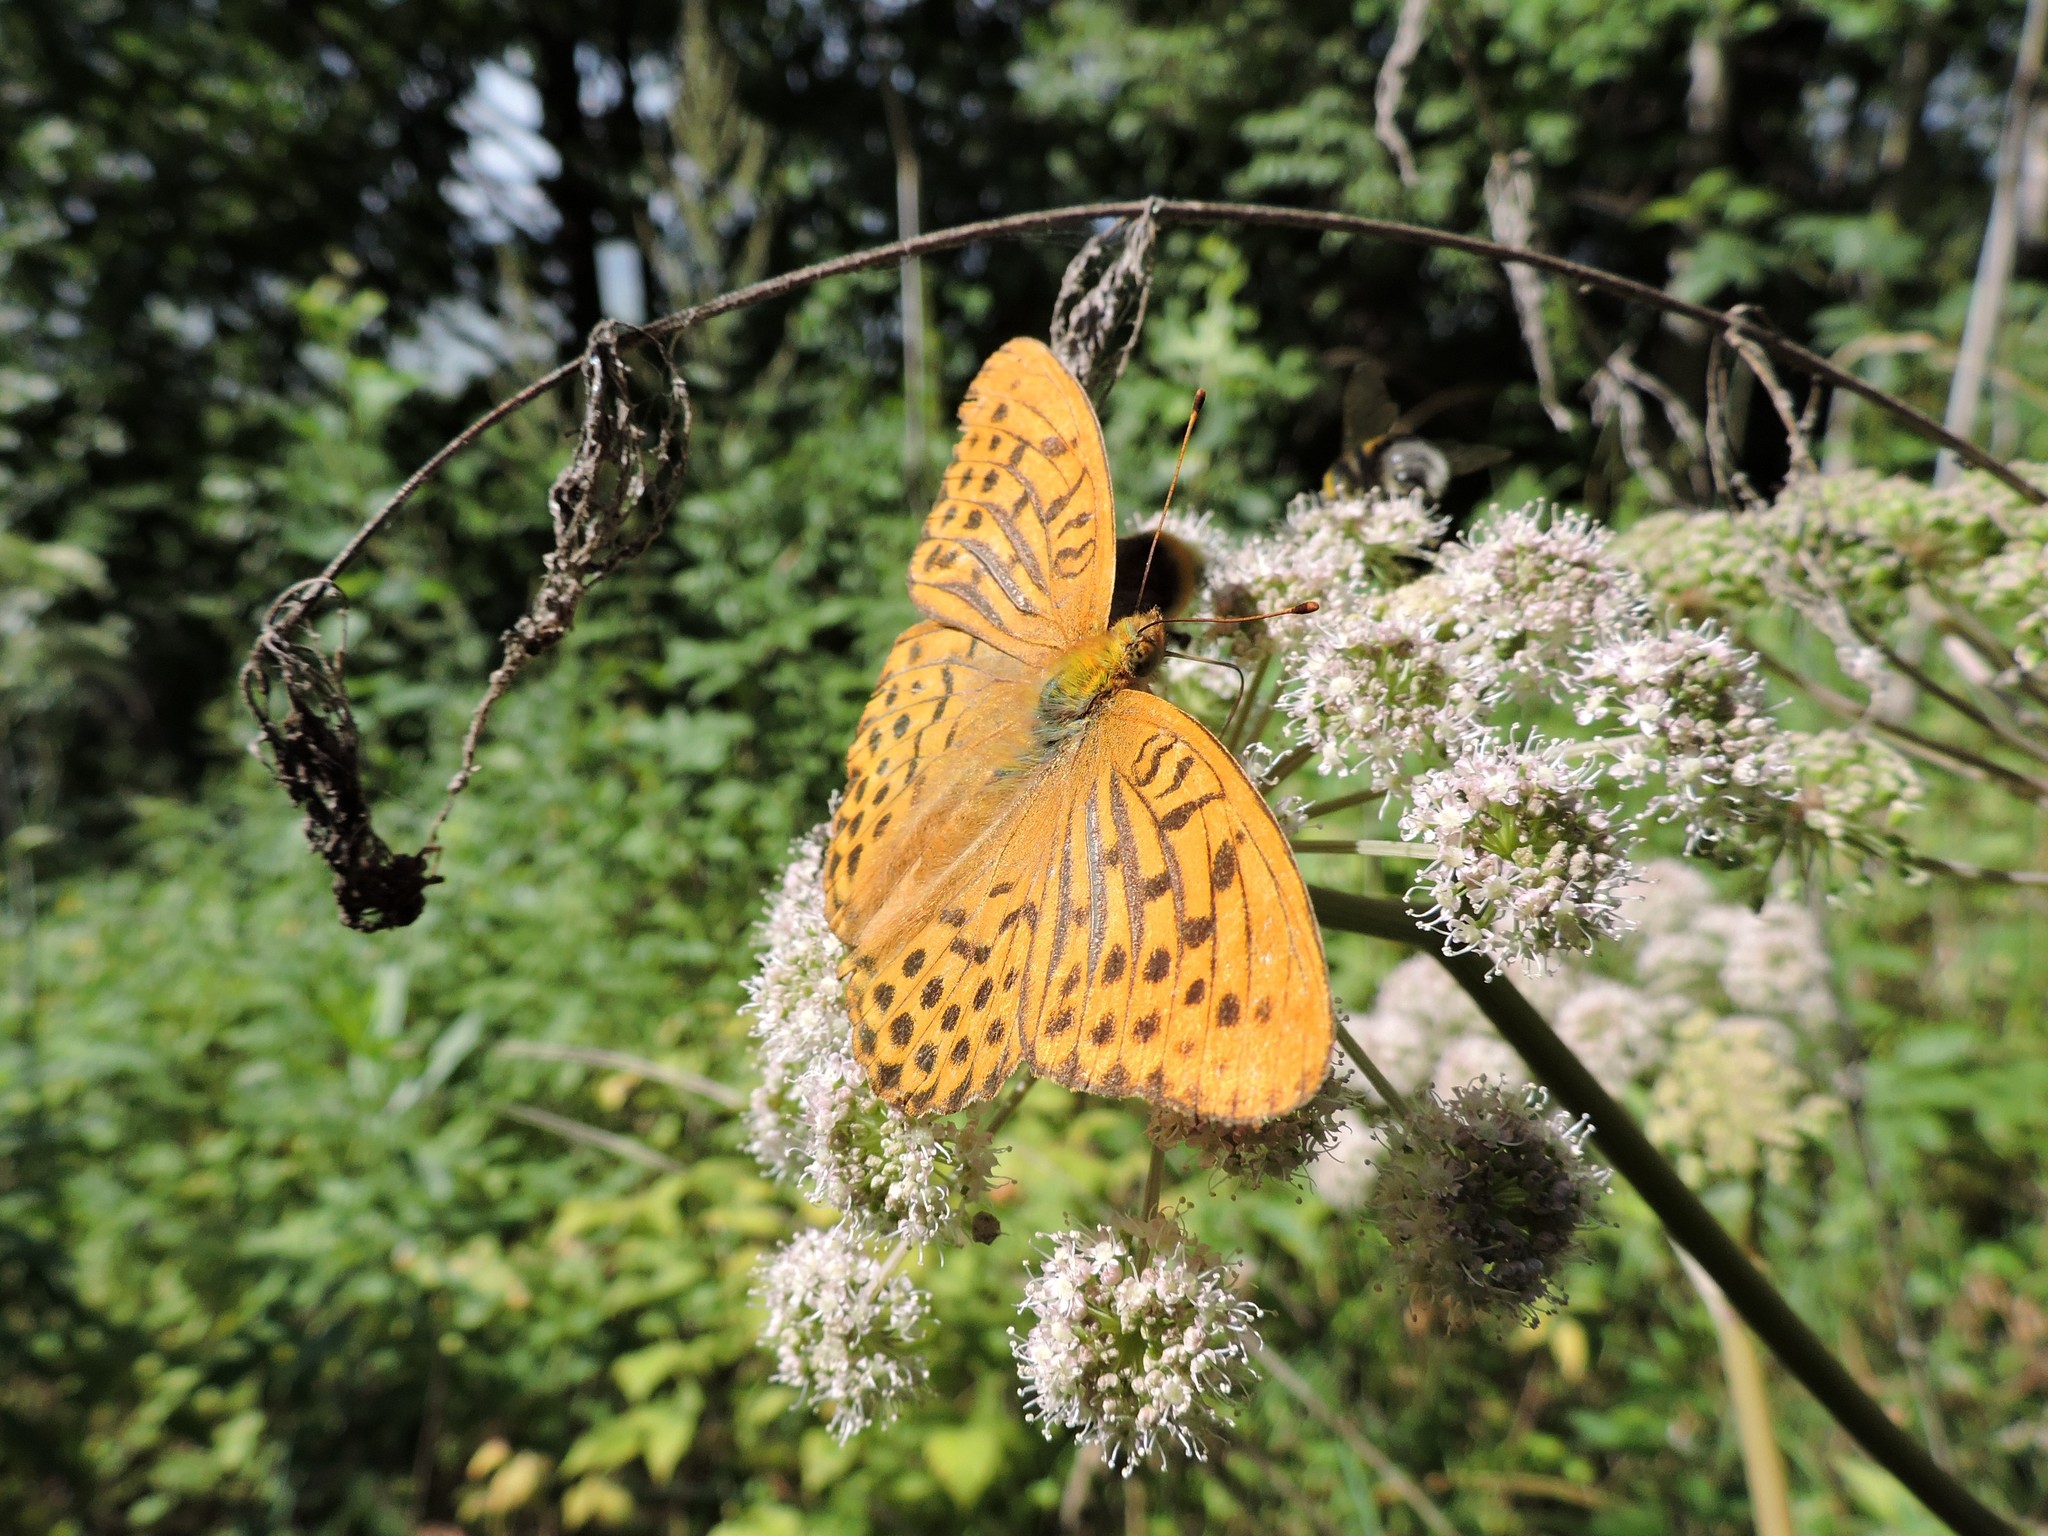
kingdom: Animalia
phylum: Arthropoda
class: Insecta
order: Lepidoptera
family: Nymphalidae
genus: Argynnis
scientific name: Argynnis paphia
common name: Silver-washed fritillary
